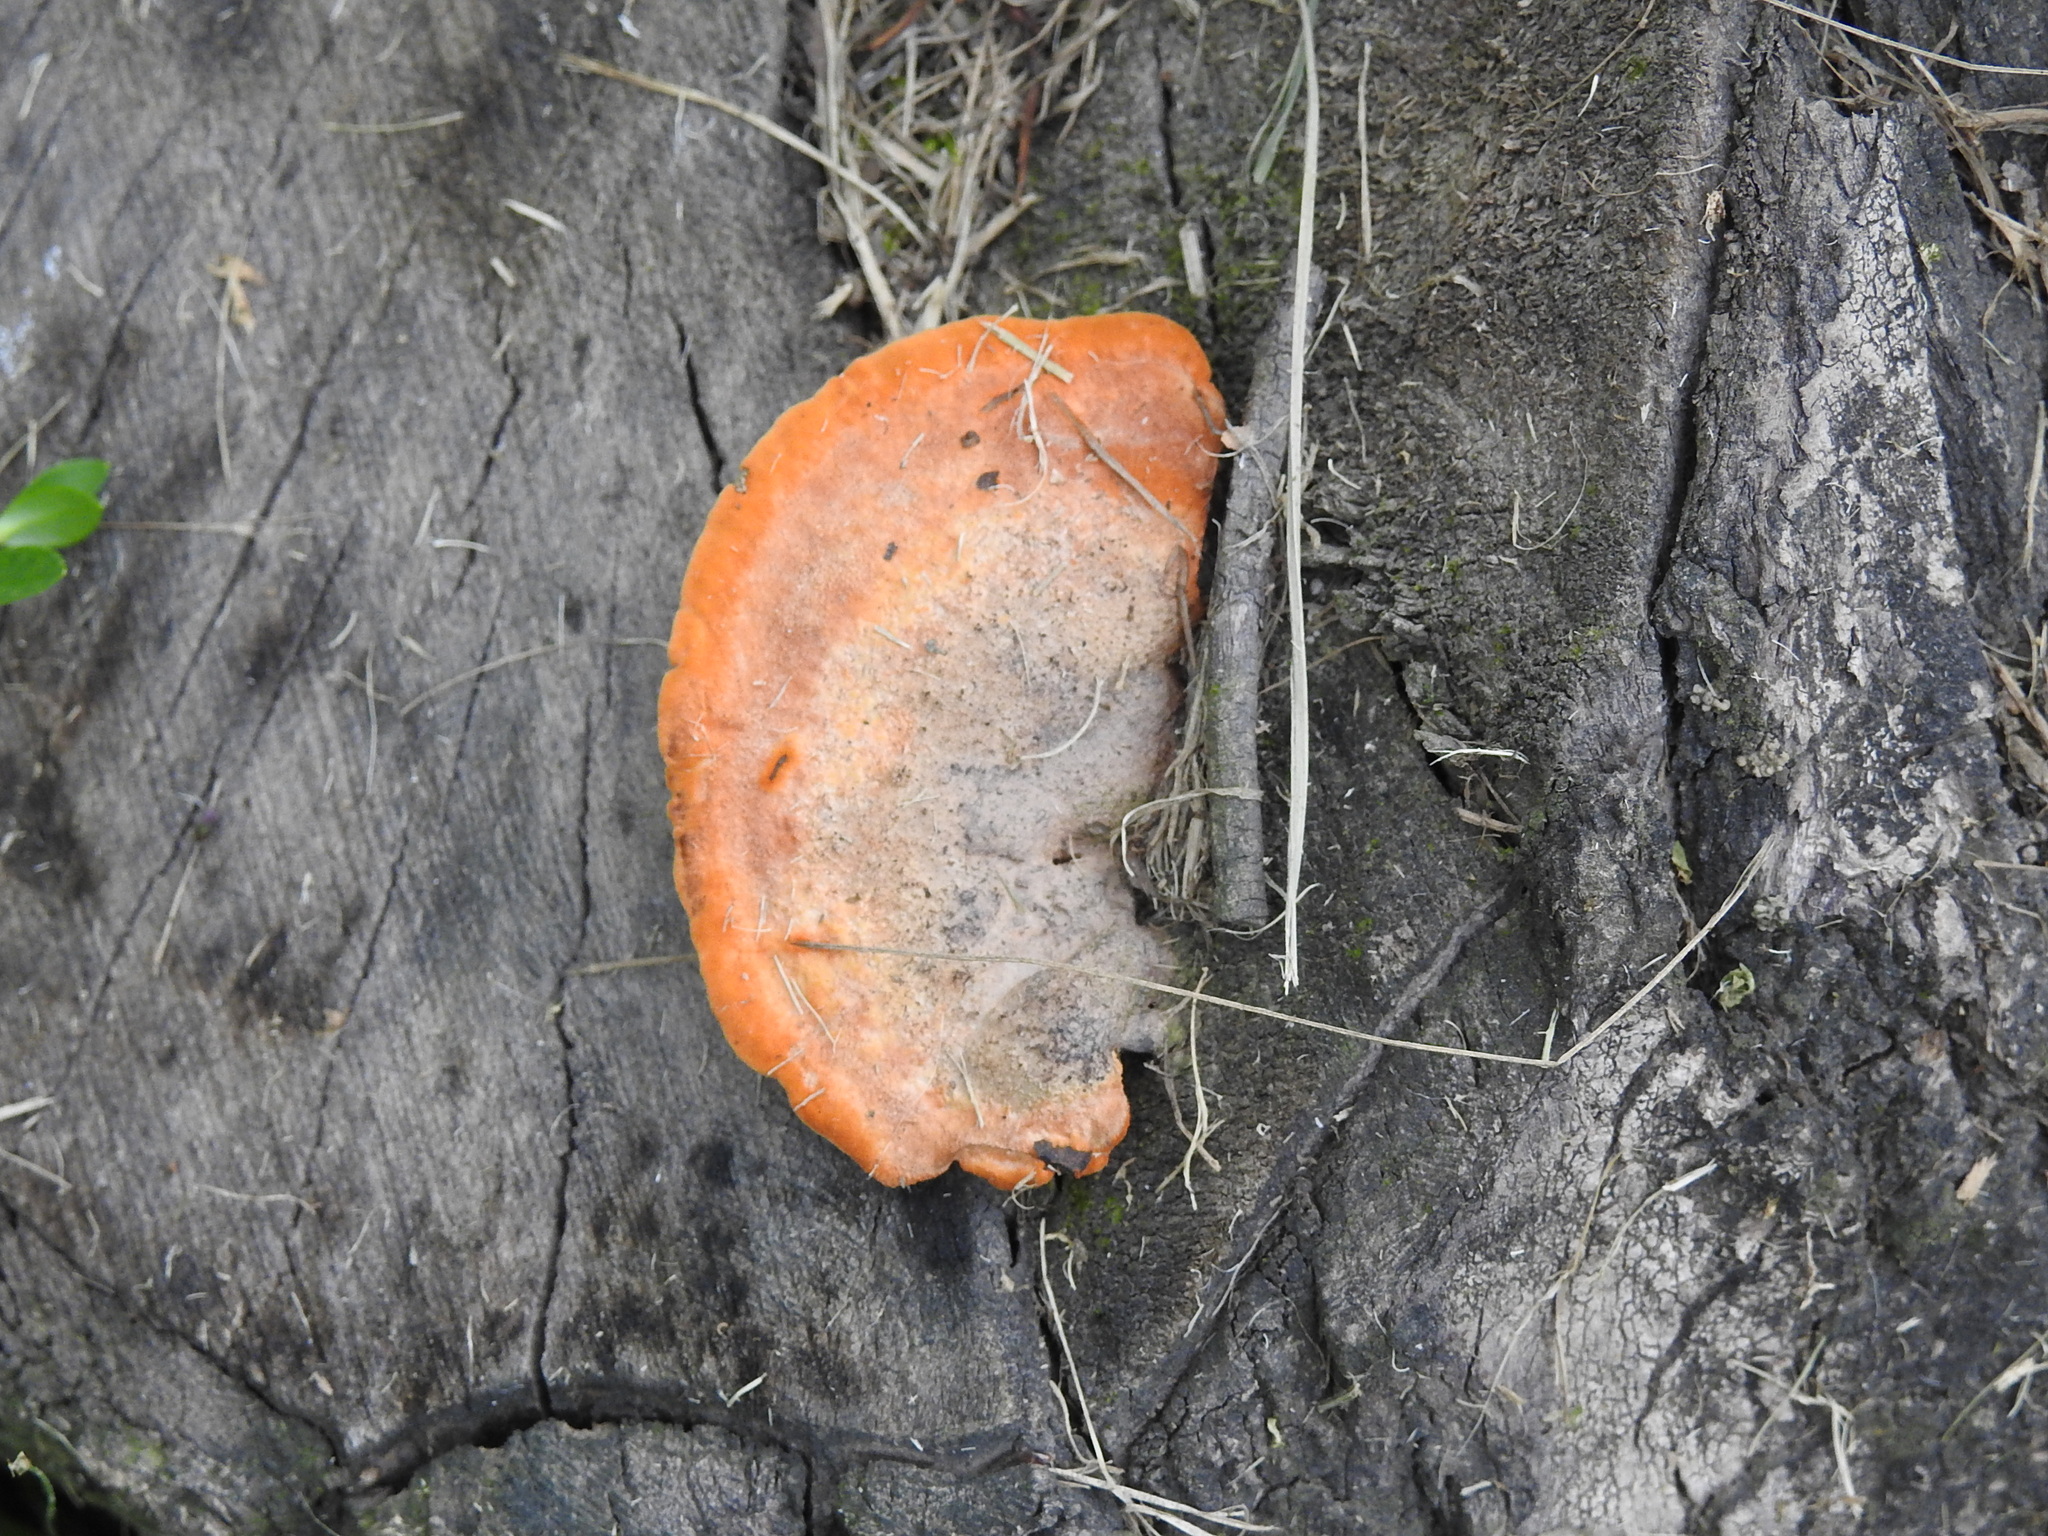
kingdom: Fungi
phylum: Basidiomycota
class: Agaricomycetes
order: Polyporales
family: Polyporaceae
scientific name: Polyporaceae
